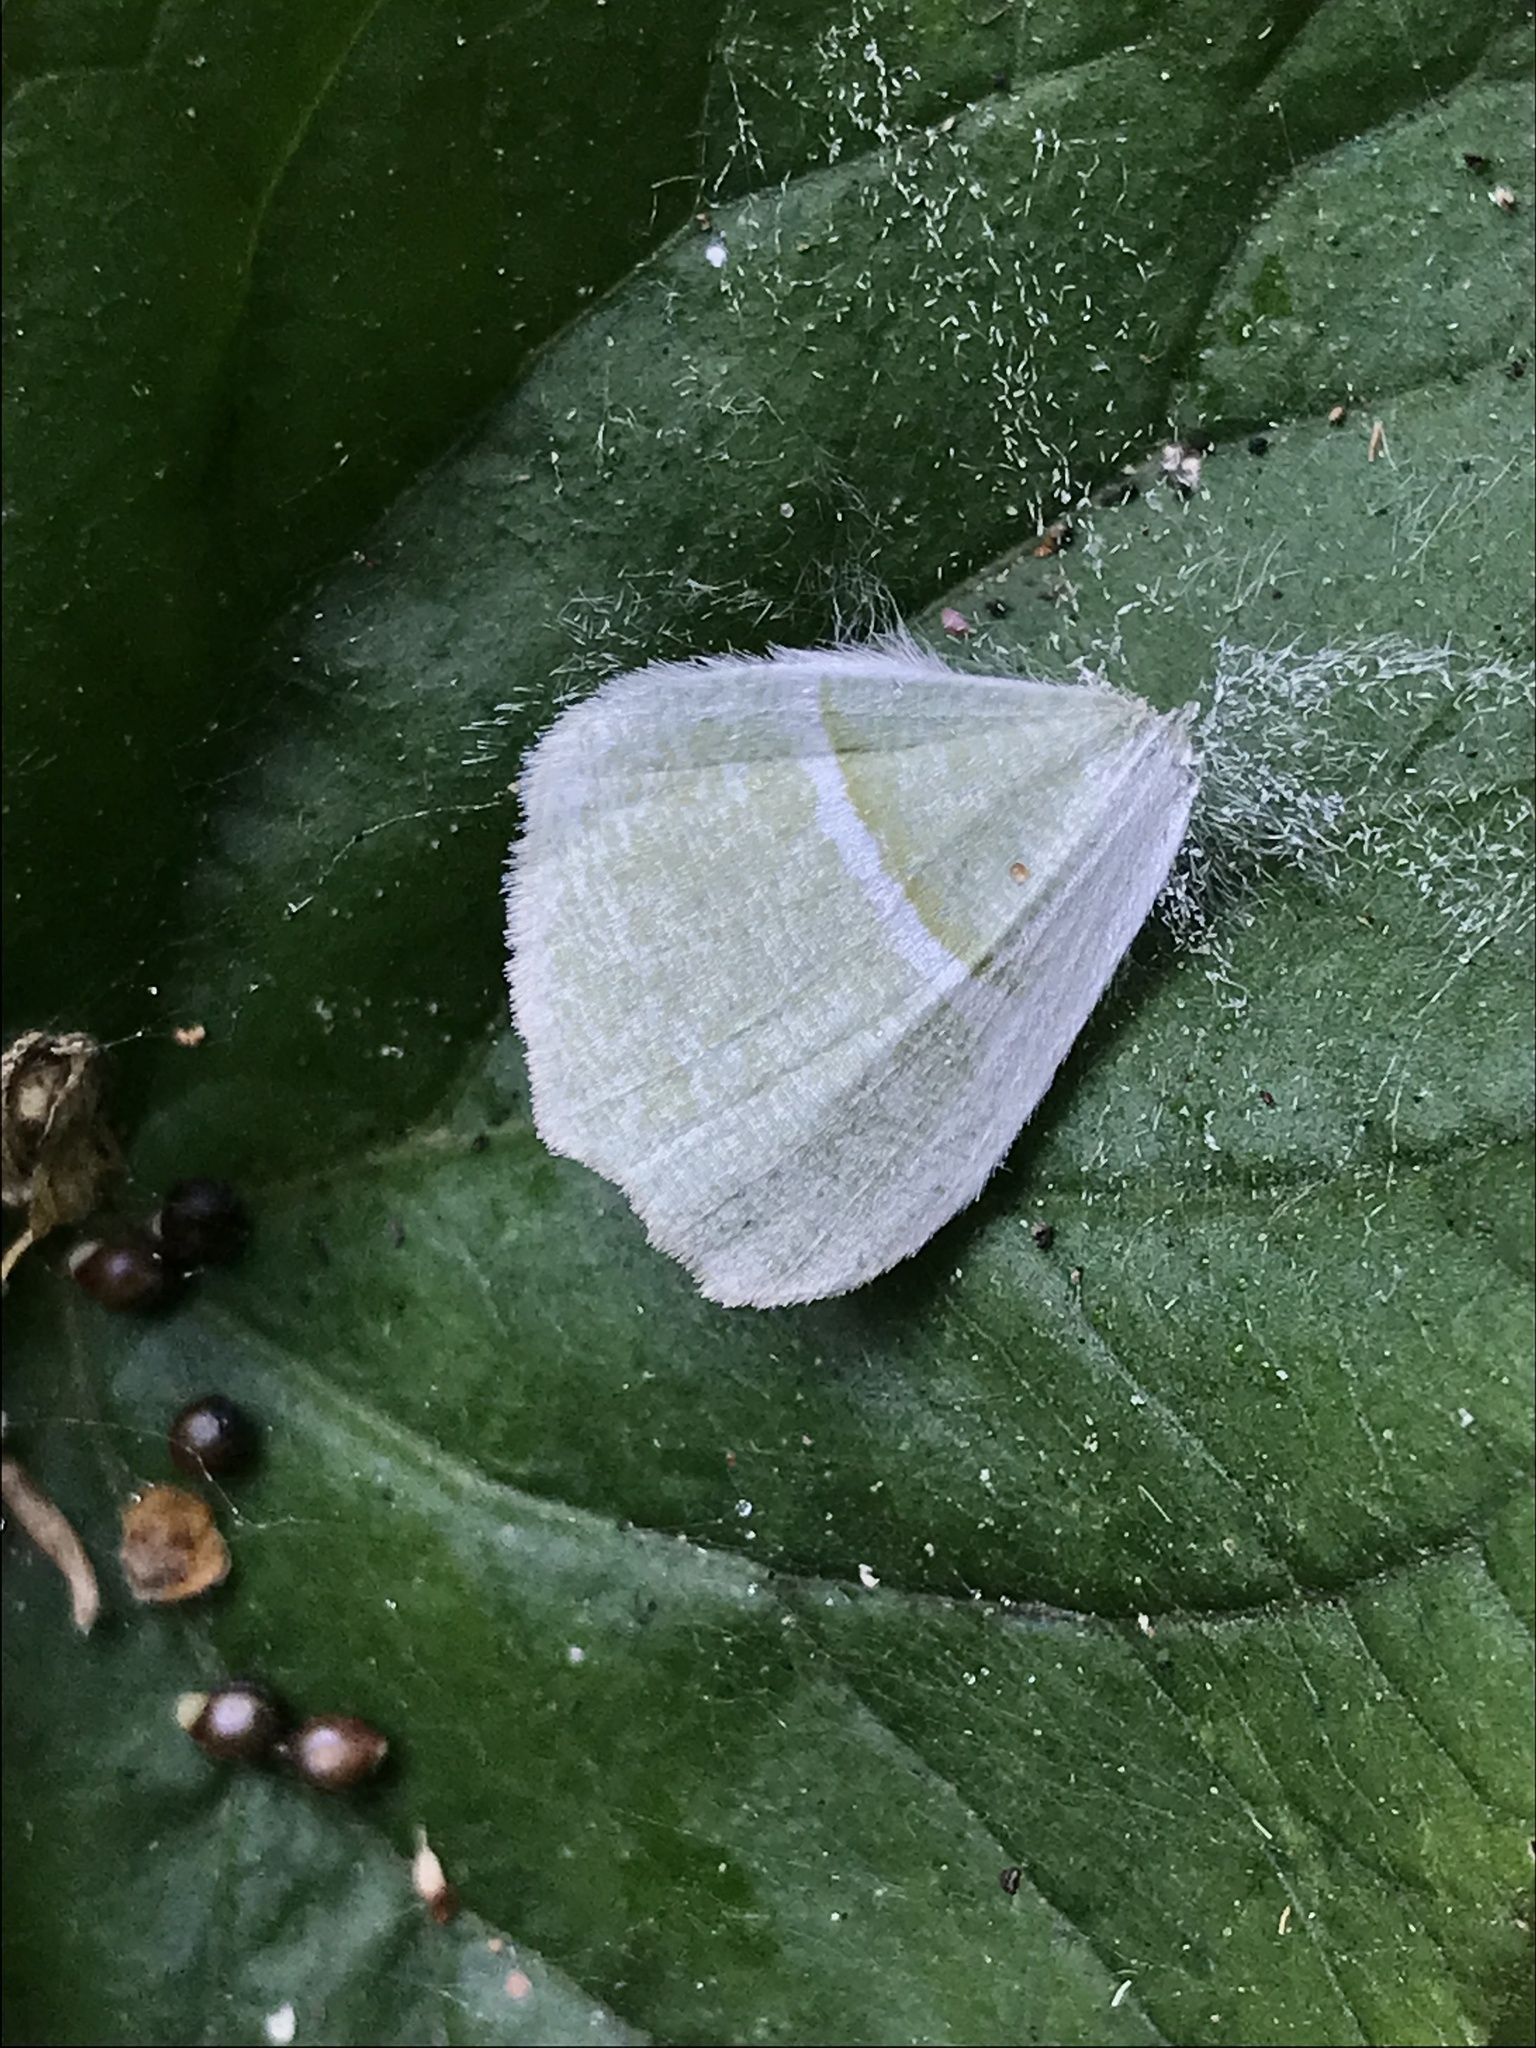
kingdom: Animalia
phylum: Arthropoda
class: Insecta
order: Lepidoptera
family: Geometridae
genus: Campaea
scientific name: Campaea perlata
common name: Fringed looper
